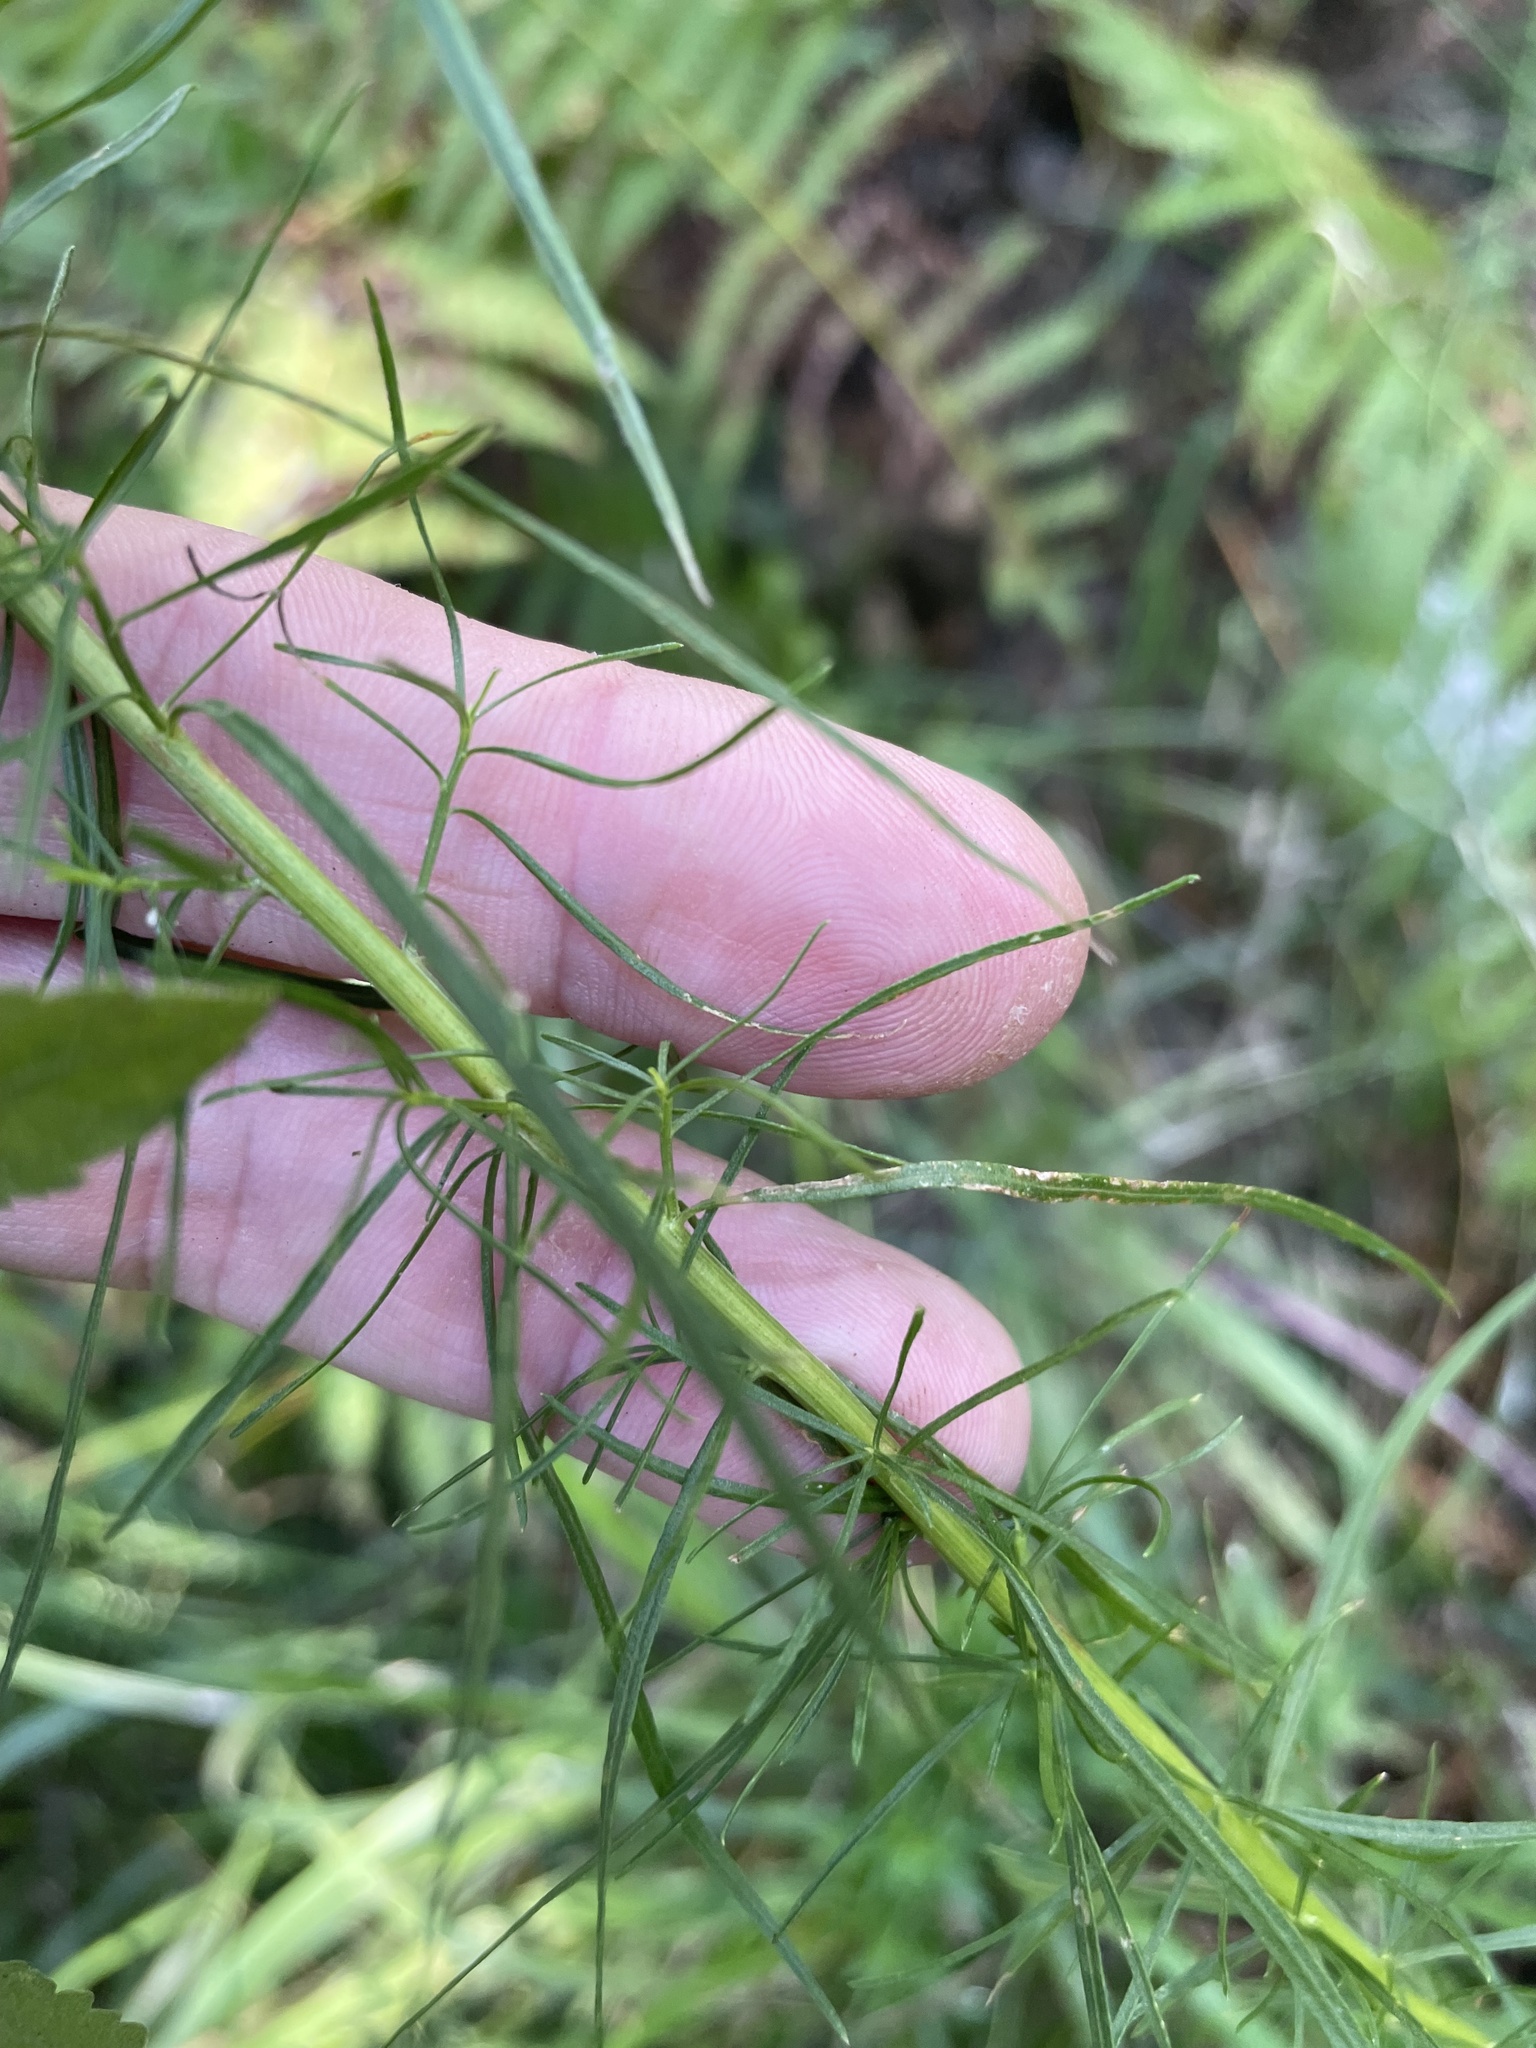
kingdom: Plantae
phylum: Tracheophyta
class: Magnoliopsida
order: Asterales
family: Asteraceae
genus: Euthamia
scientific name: Euthamia caroliniana
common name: Coastal plain goldentop
